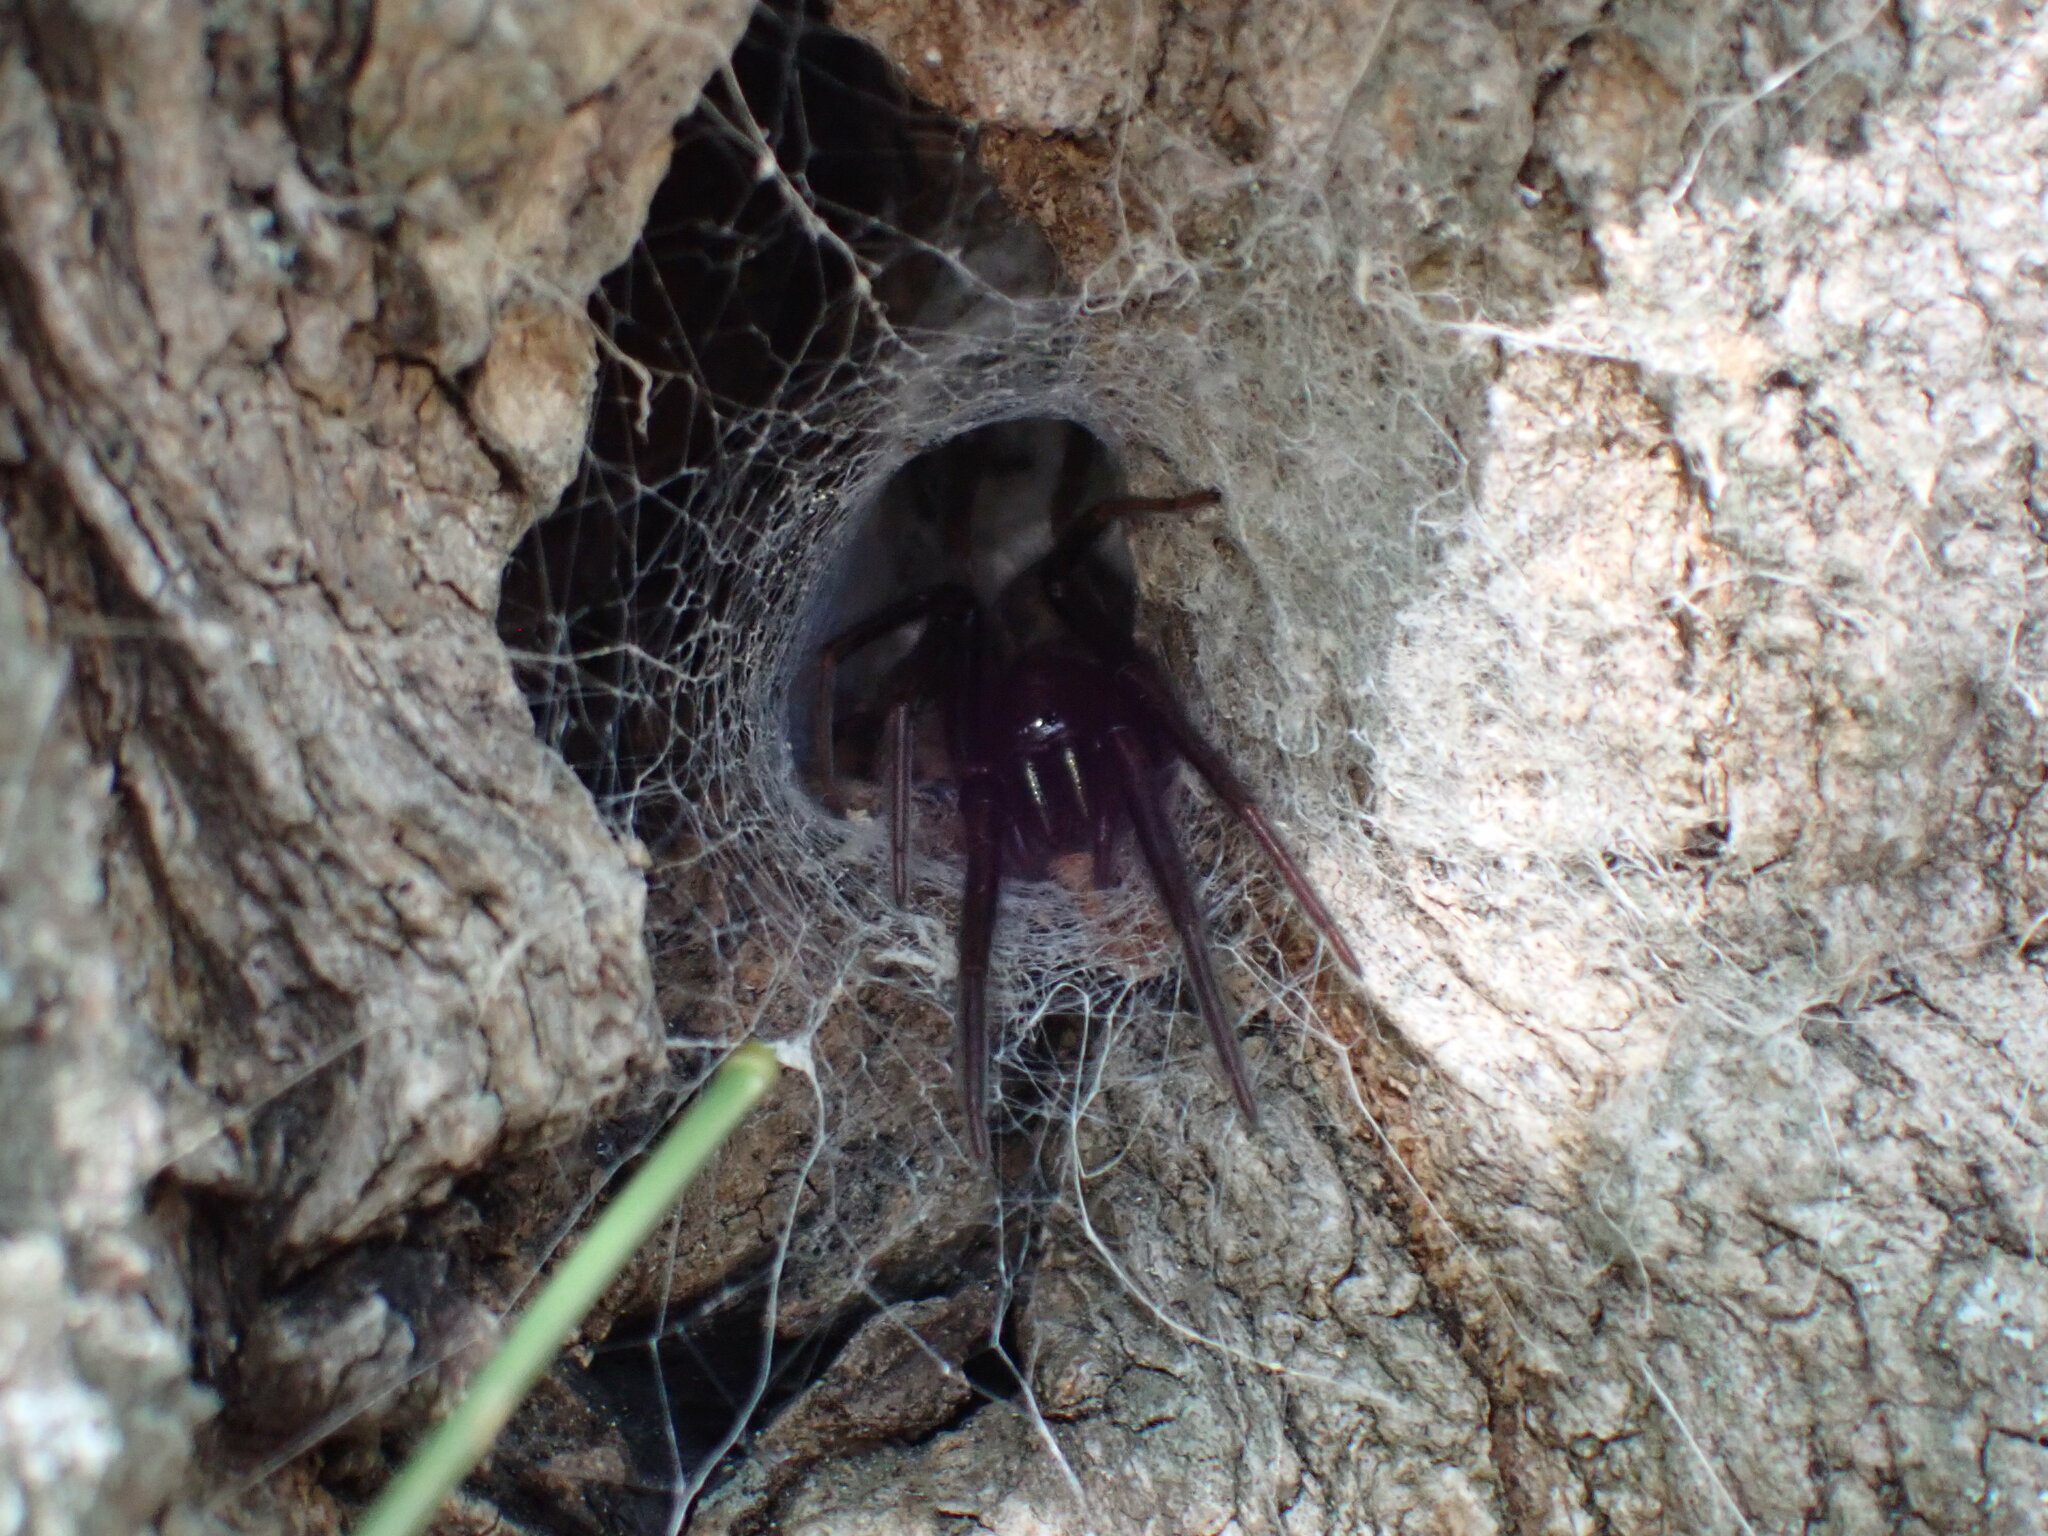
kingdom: Animalia
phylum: Arthropoda
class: Arachnida
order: Araneae
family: Segestriidae
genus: Segestria
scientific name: Segestria florentina
